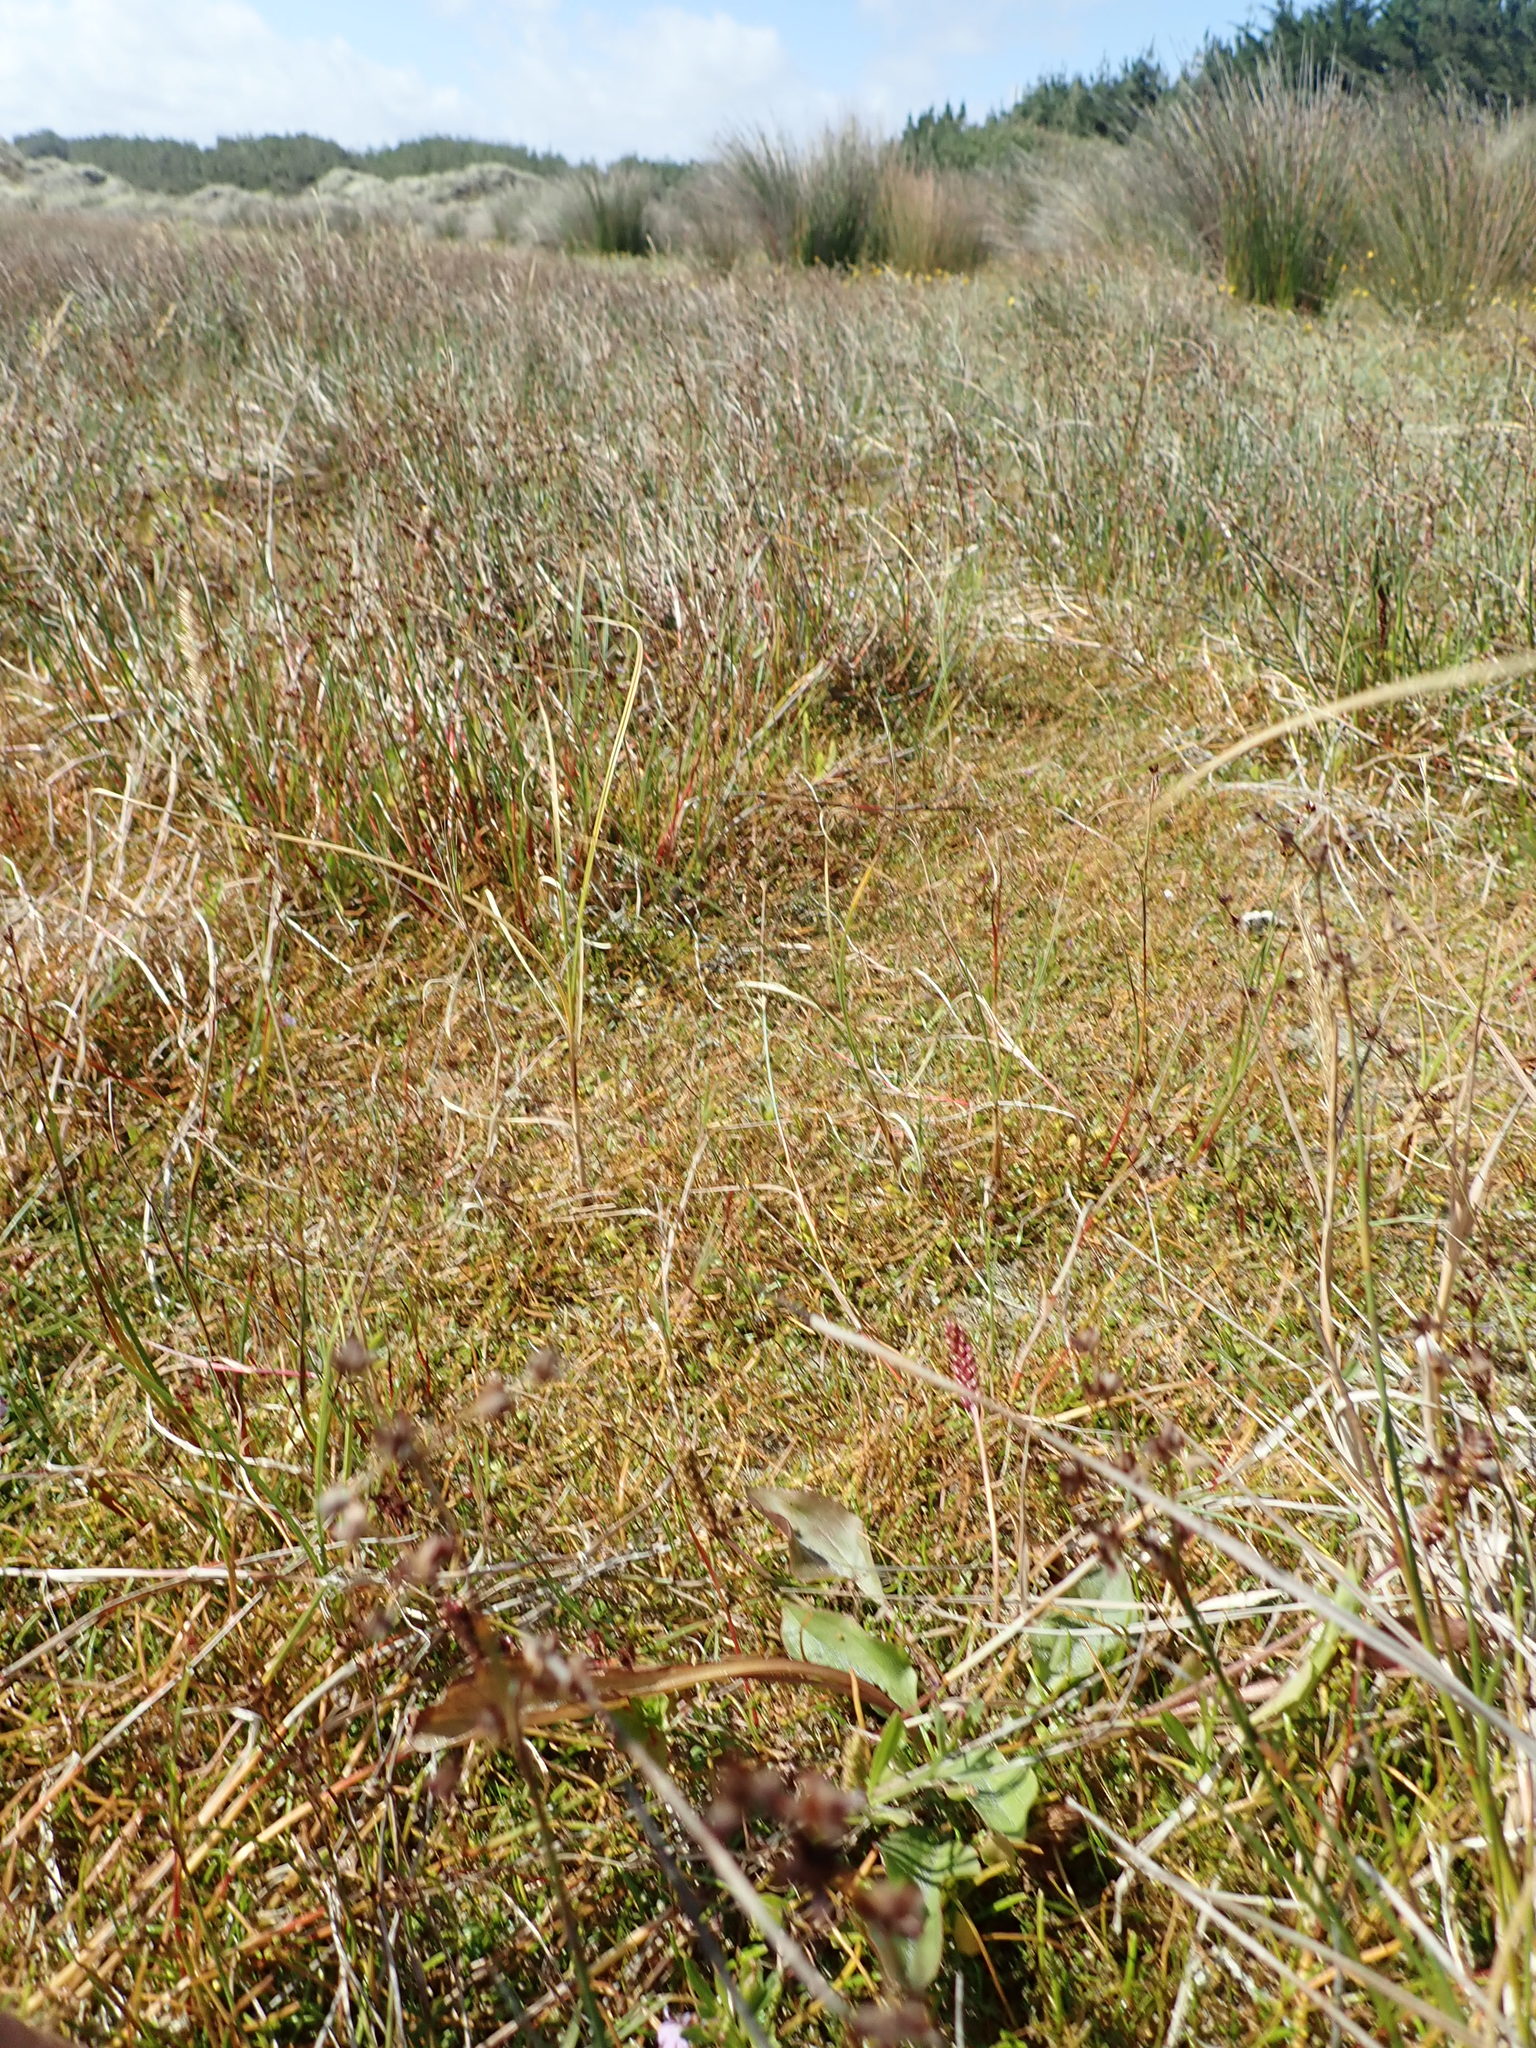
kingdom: Plantae
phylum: Tracheophyta
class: Magnoliopsida
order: Lamiales
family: Plantaginaceae
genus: Plantago
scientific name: Plantago major
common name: Common plantain
